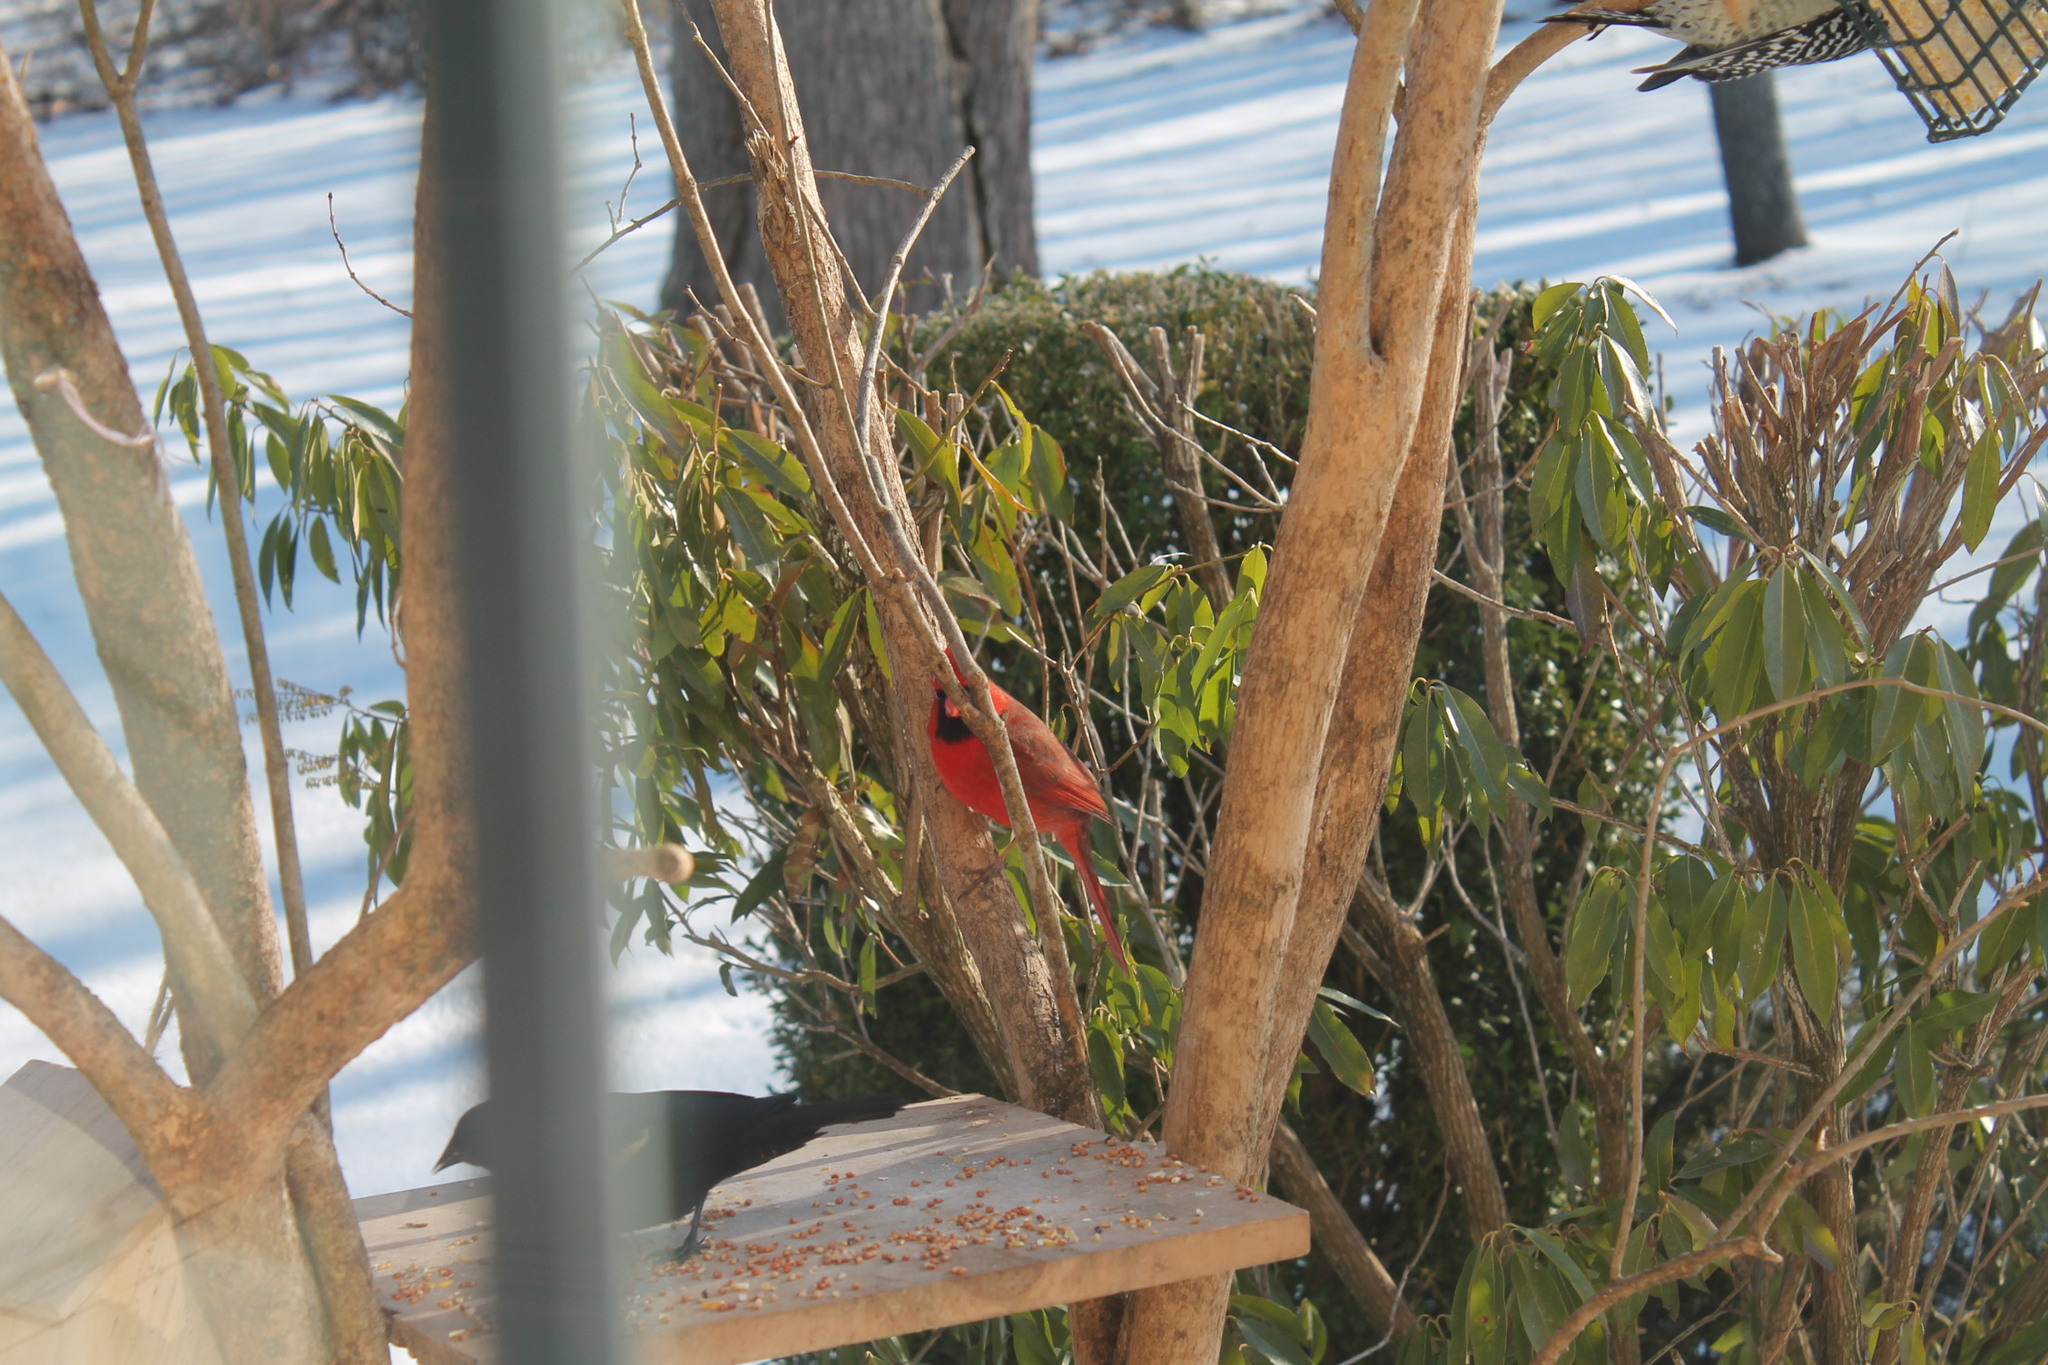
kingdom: Animalia
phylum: Chordata
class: Aves
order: Passeriformes
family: Cardinalidae
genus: Cardinalis
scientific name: Cardinalis cardinalis
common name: Northern cardinal
